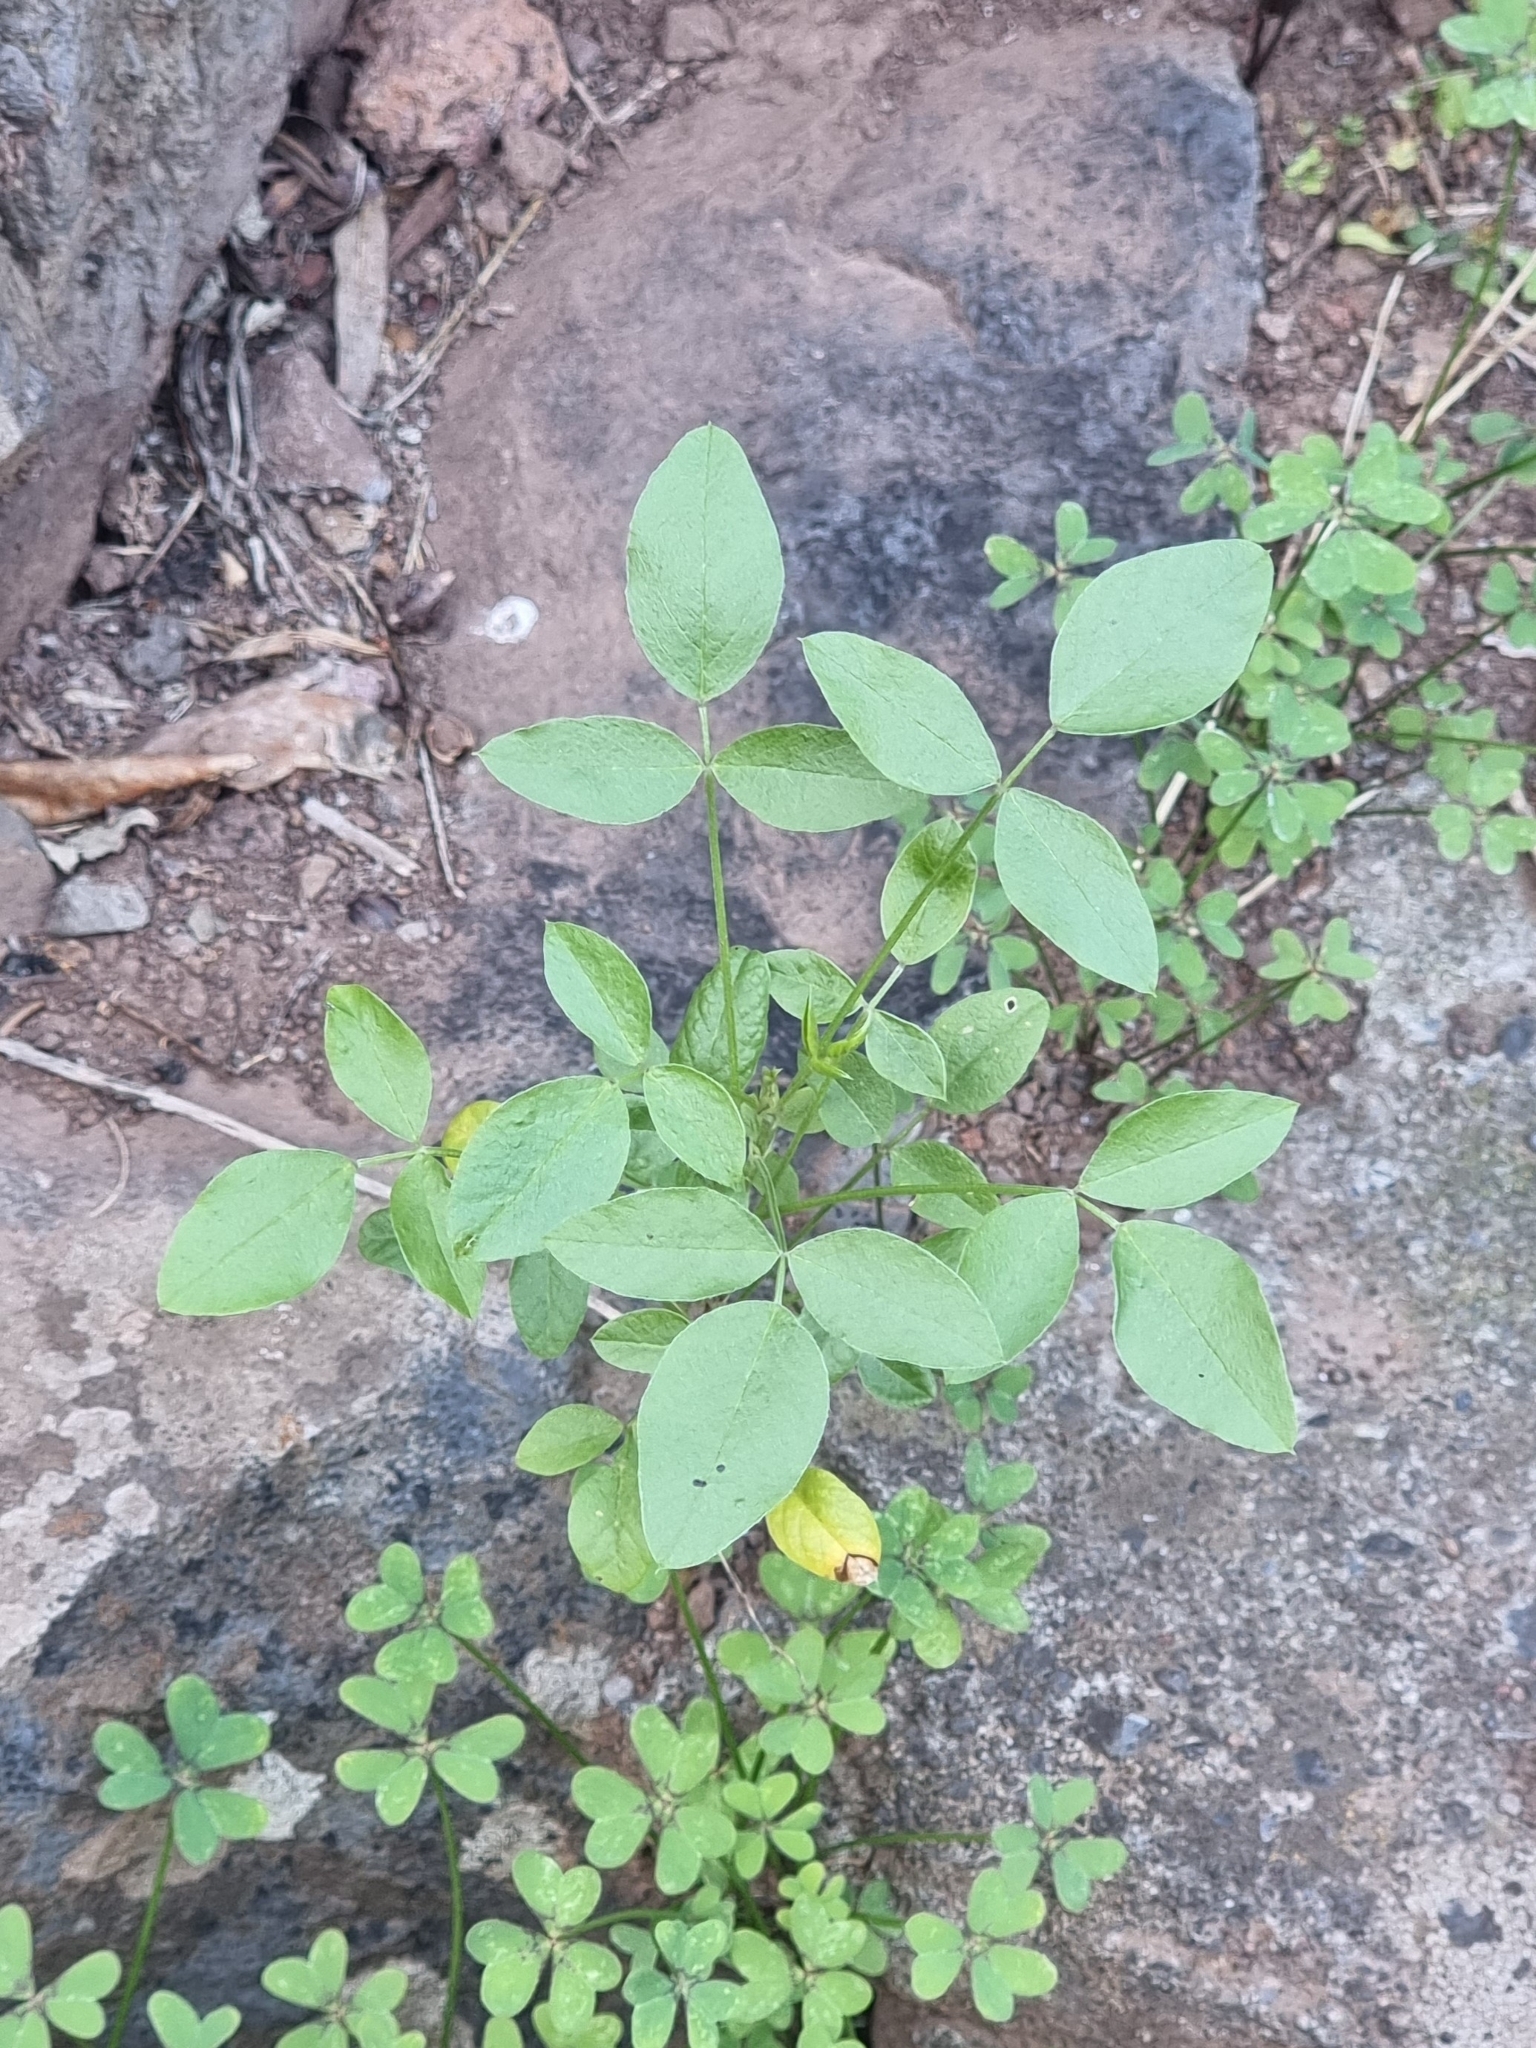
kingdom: Plantae
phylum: Tracheophyta
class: Magnoliopsida
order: Fabales
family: Fabaceae
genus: Bituminaria
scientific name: Bituminaria bituminosa
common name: Arabian pea
